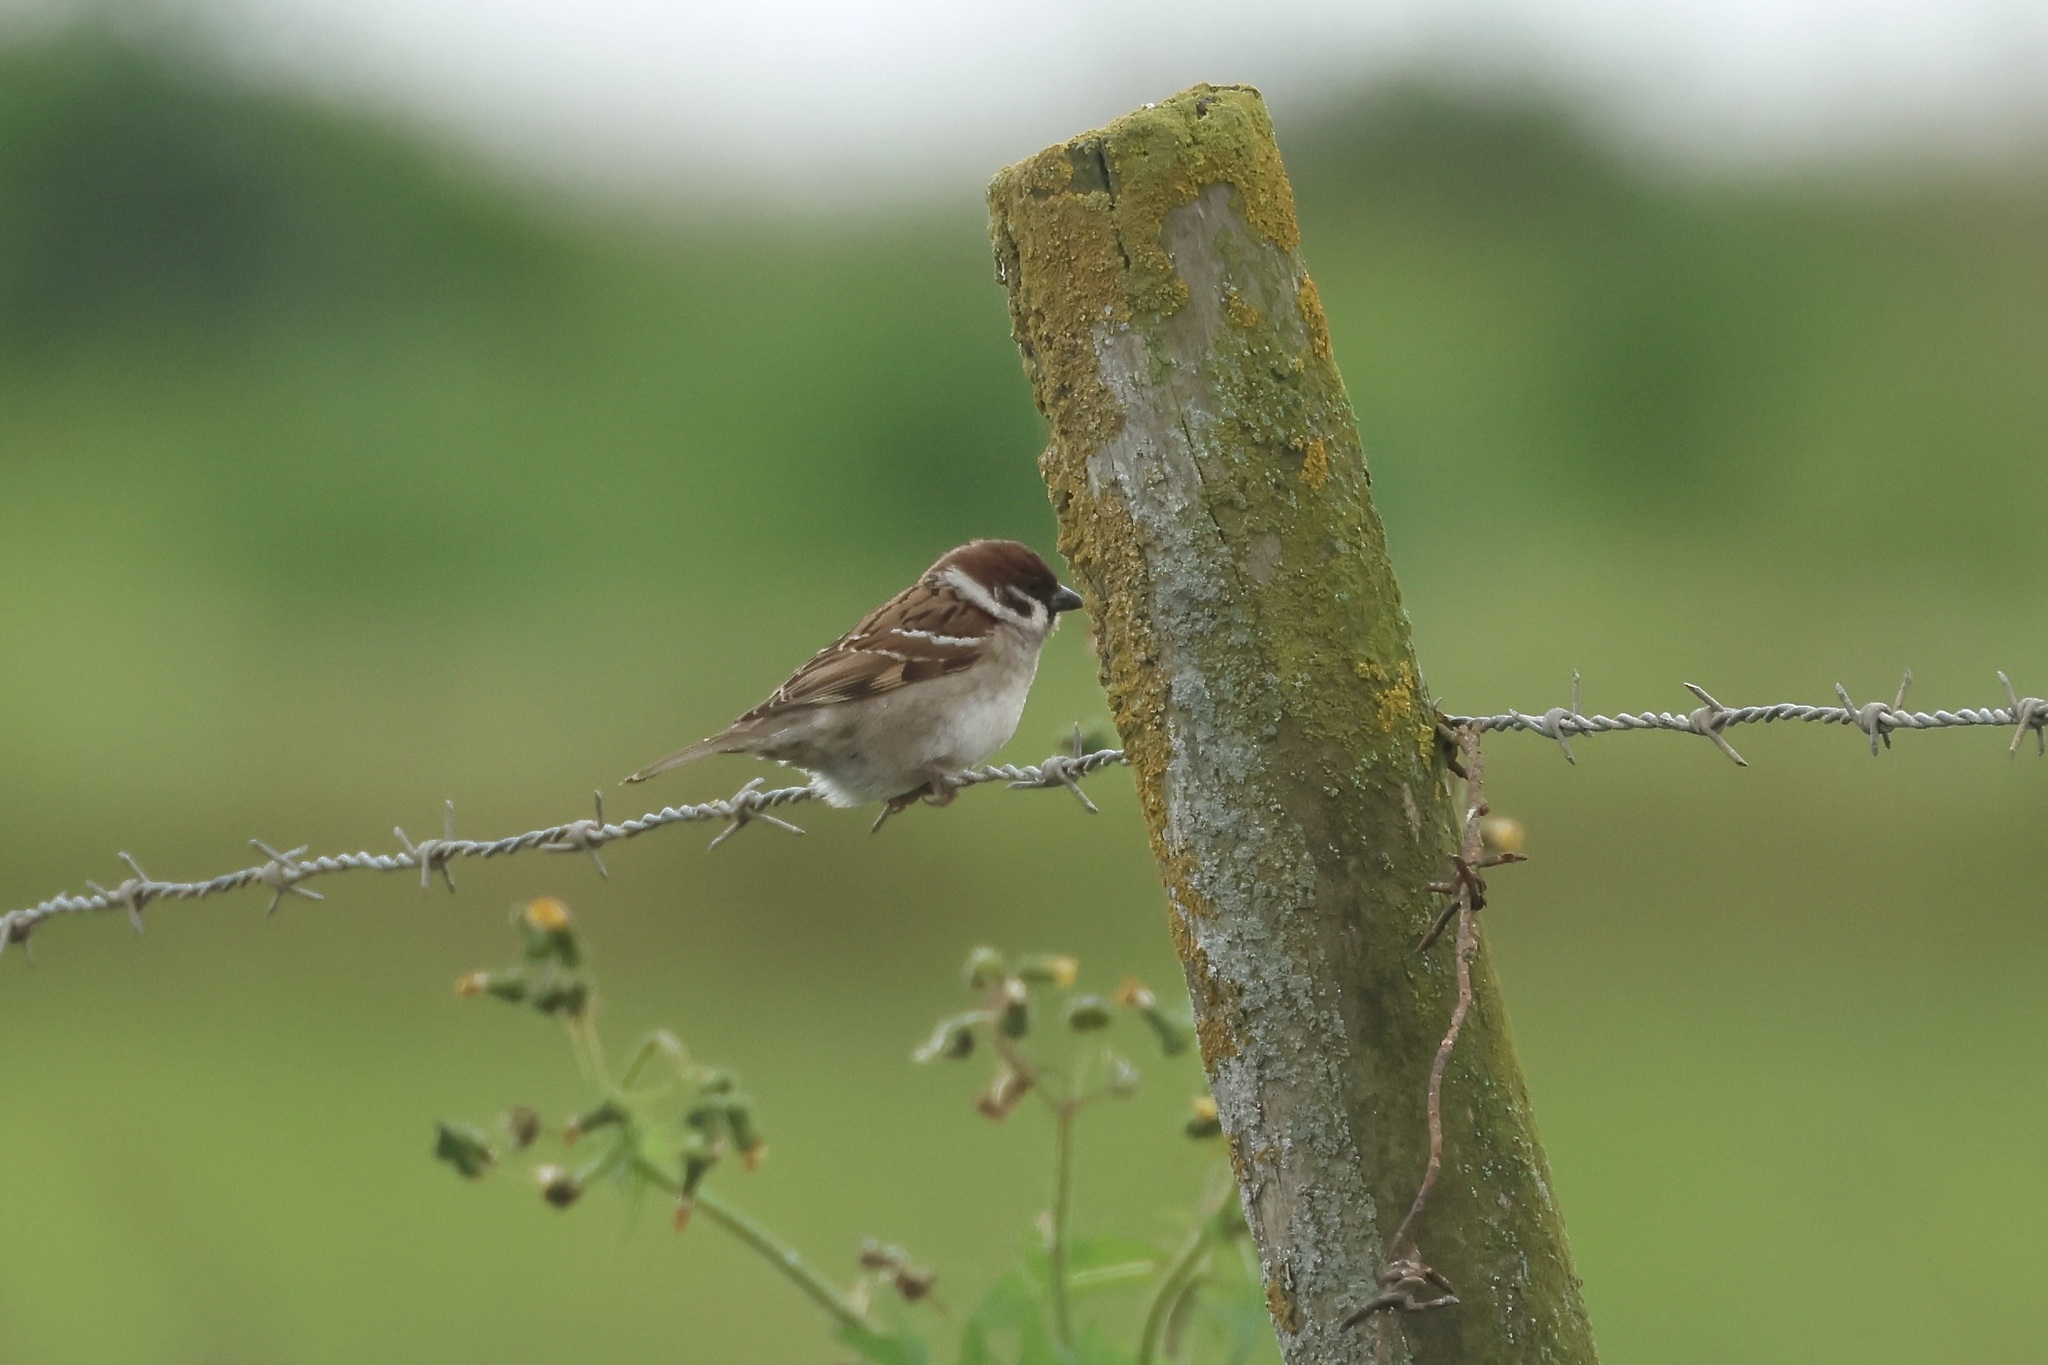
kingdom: Animalia
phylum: Chordata
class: Aves
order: Passeriformes
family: Passeridae
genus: Passer
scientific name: Passer montanus
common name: Eurasian tree sparrow
